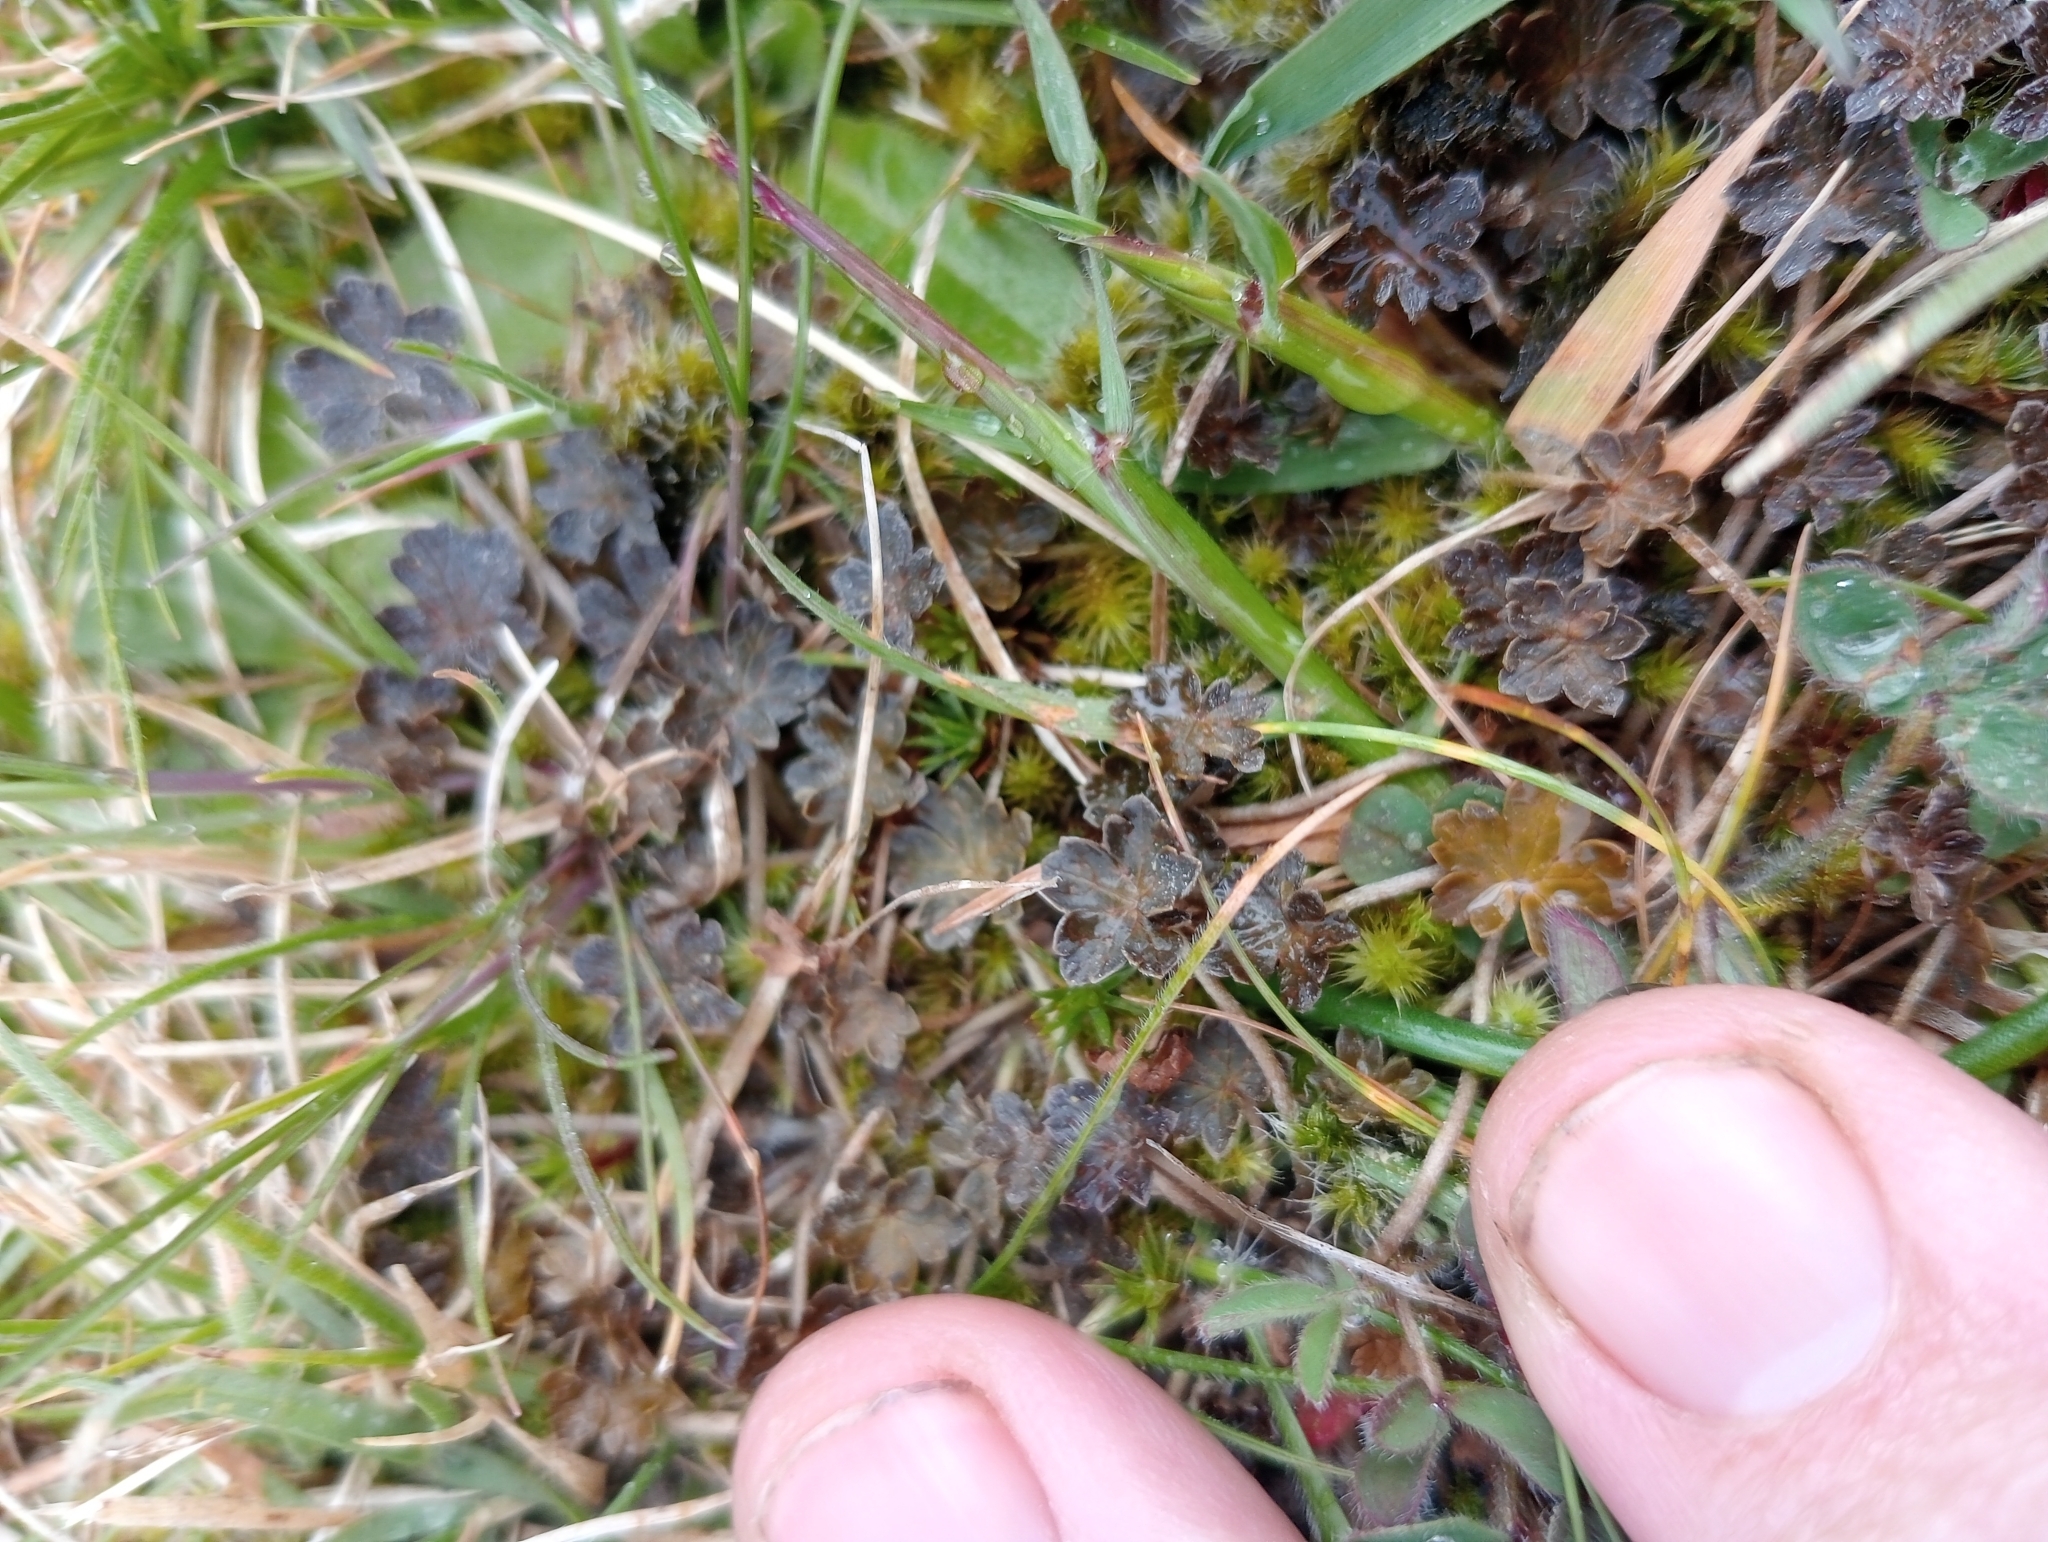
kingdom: Plantae
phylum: Tracheophyta
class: Magnoliopsida
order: Geraniales
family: Geraniaceae
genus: Geranium
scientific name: Geranium brevicaule
